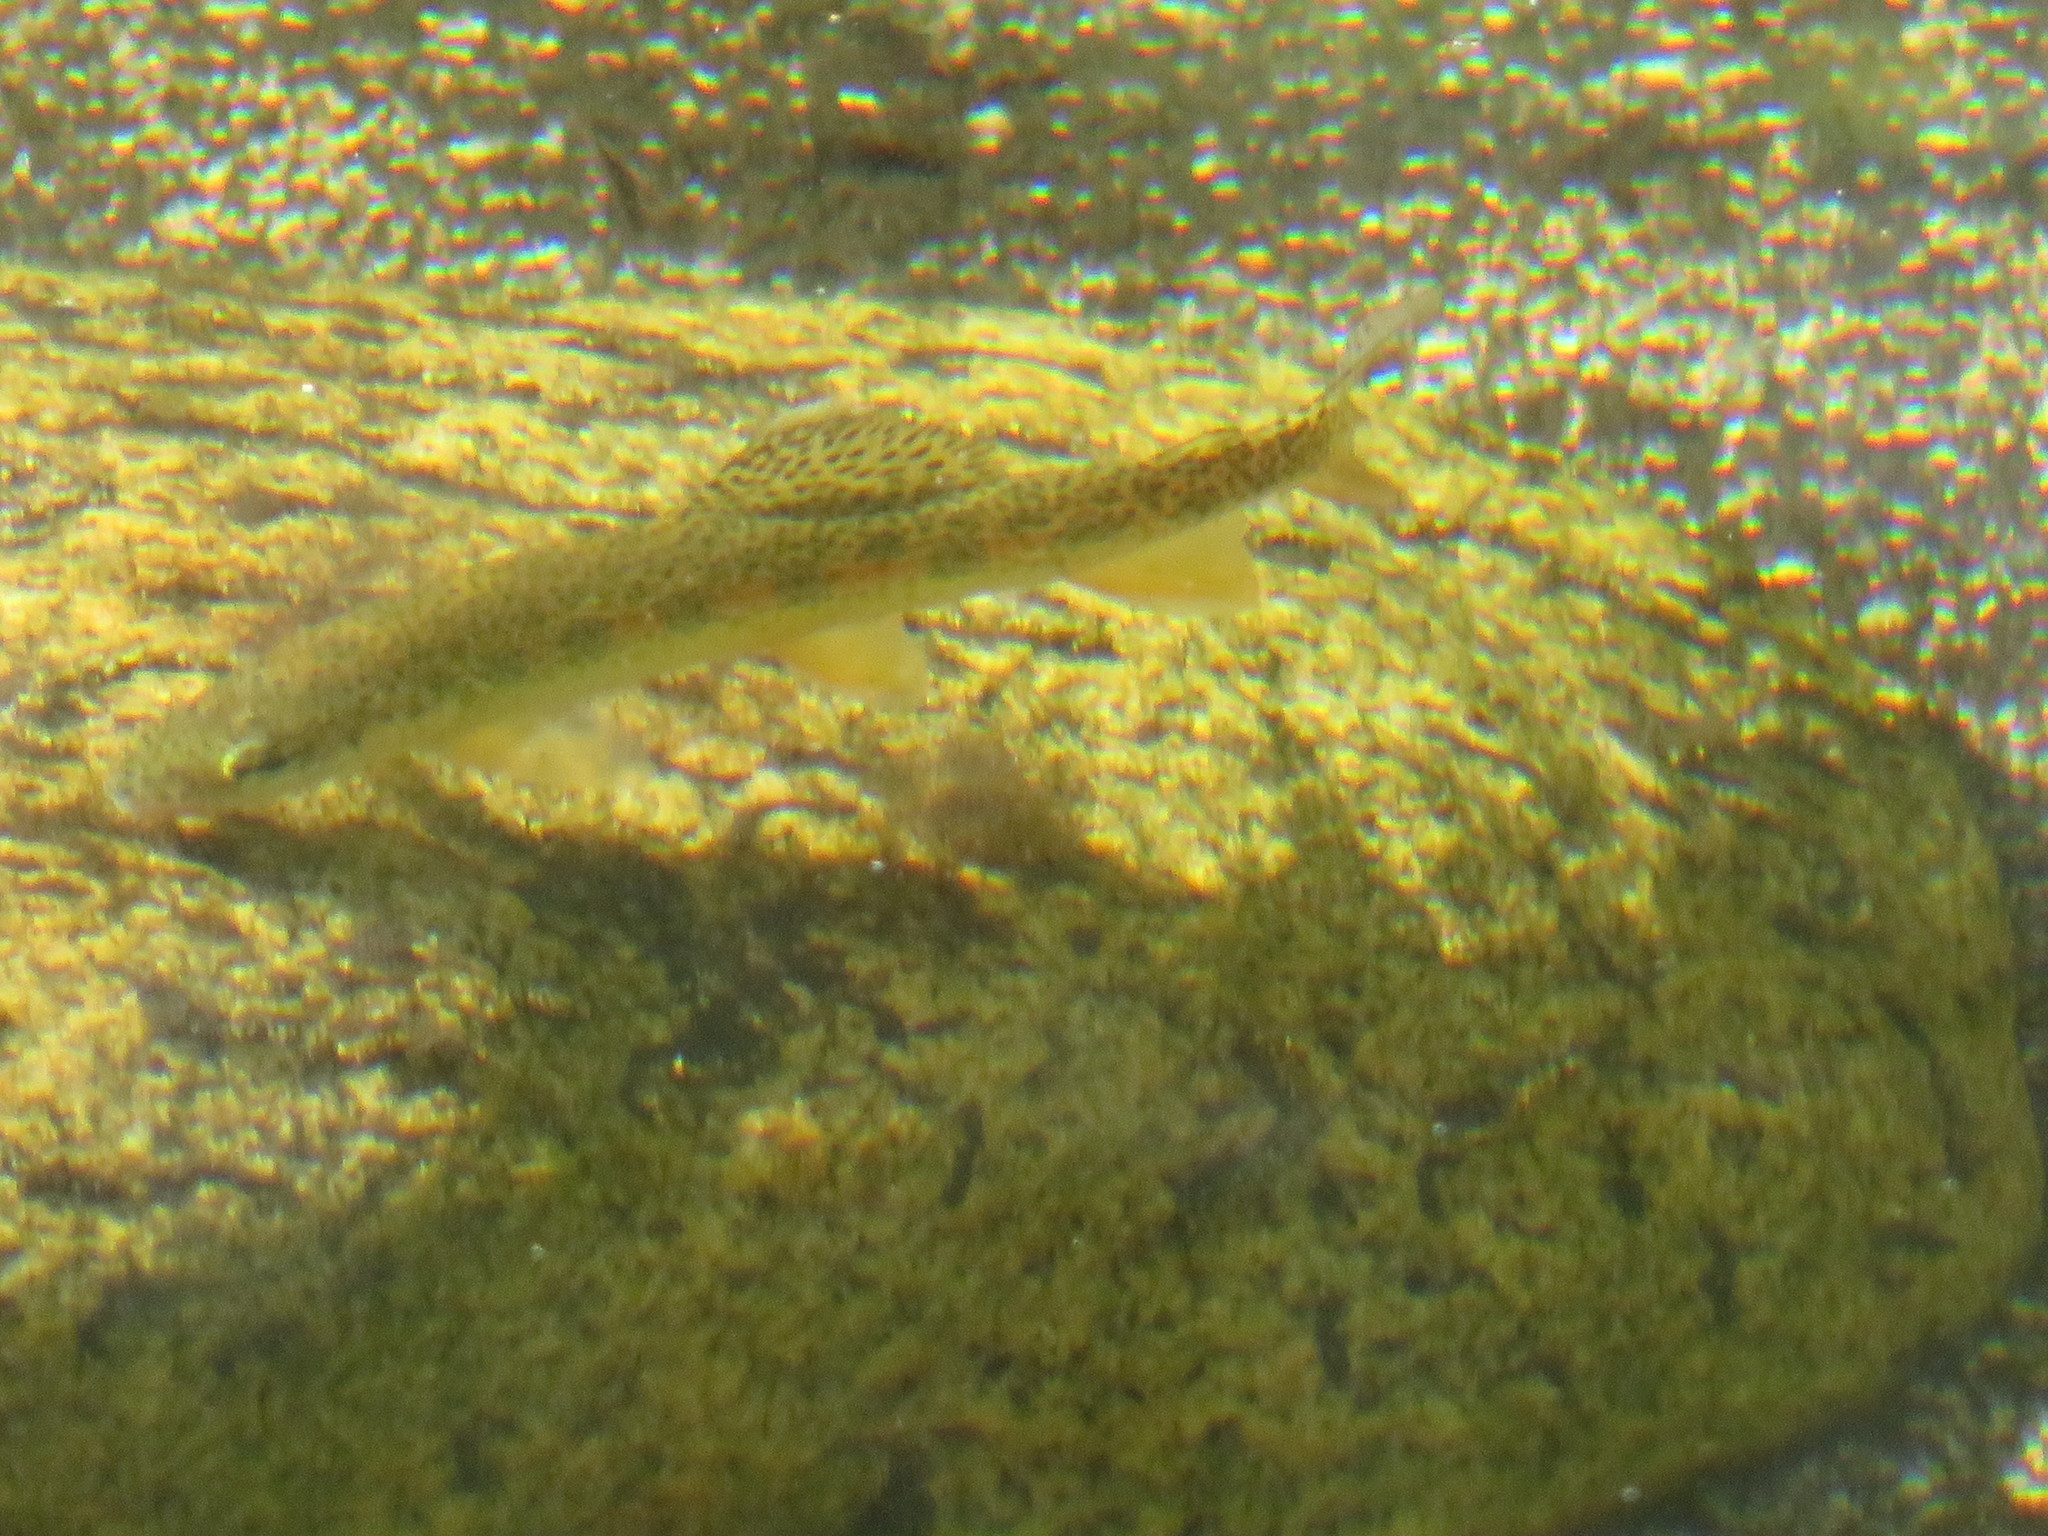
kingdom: Animalia
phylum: Chordata
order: Salmoniformes
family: Salmonidae
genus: Oncorhynchus
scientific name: Oncorhynchus mykiss
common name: Rainbow trout
